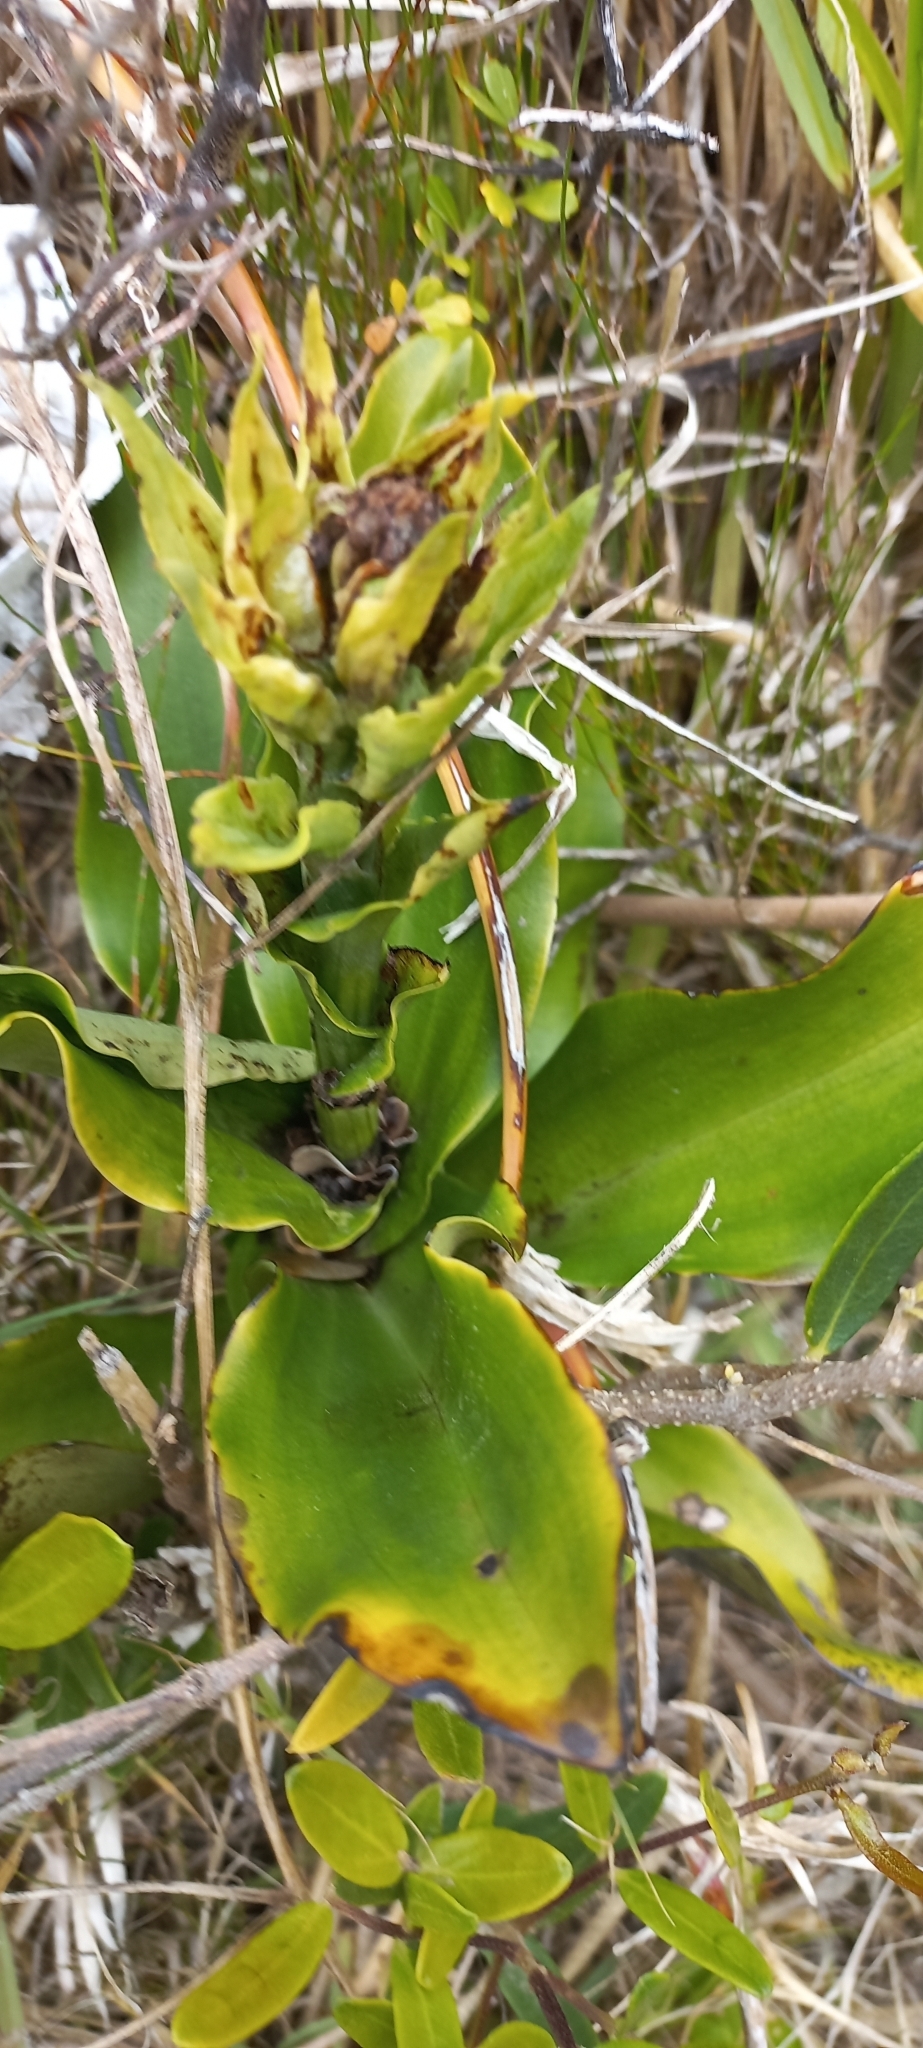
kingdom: Plantae
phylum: Tracheophyta
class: Liliopsida
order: Asparagales
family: Orchidaceae
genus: Bonatea
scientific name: Bonatea speciosa
